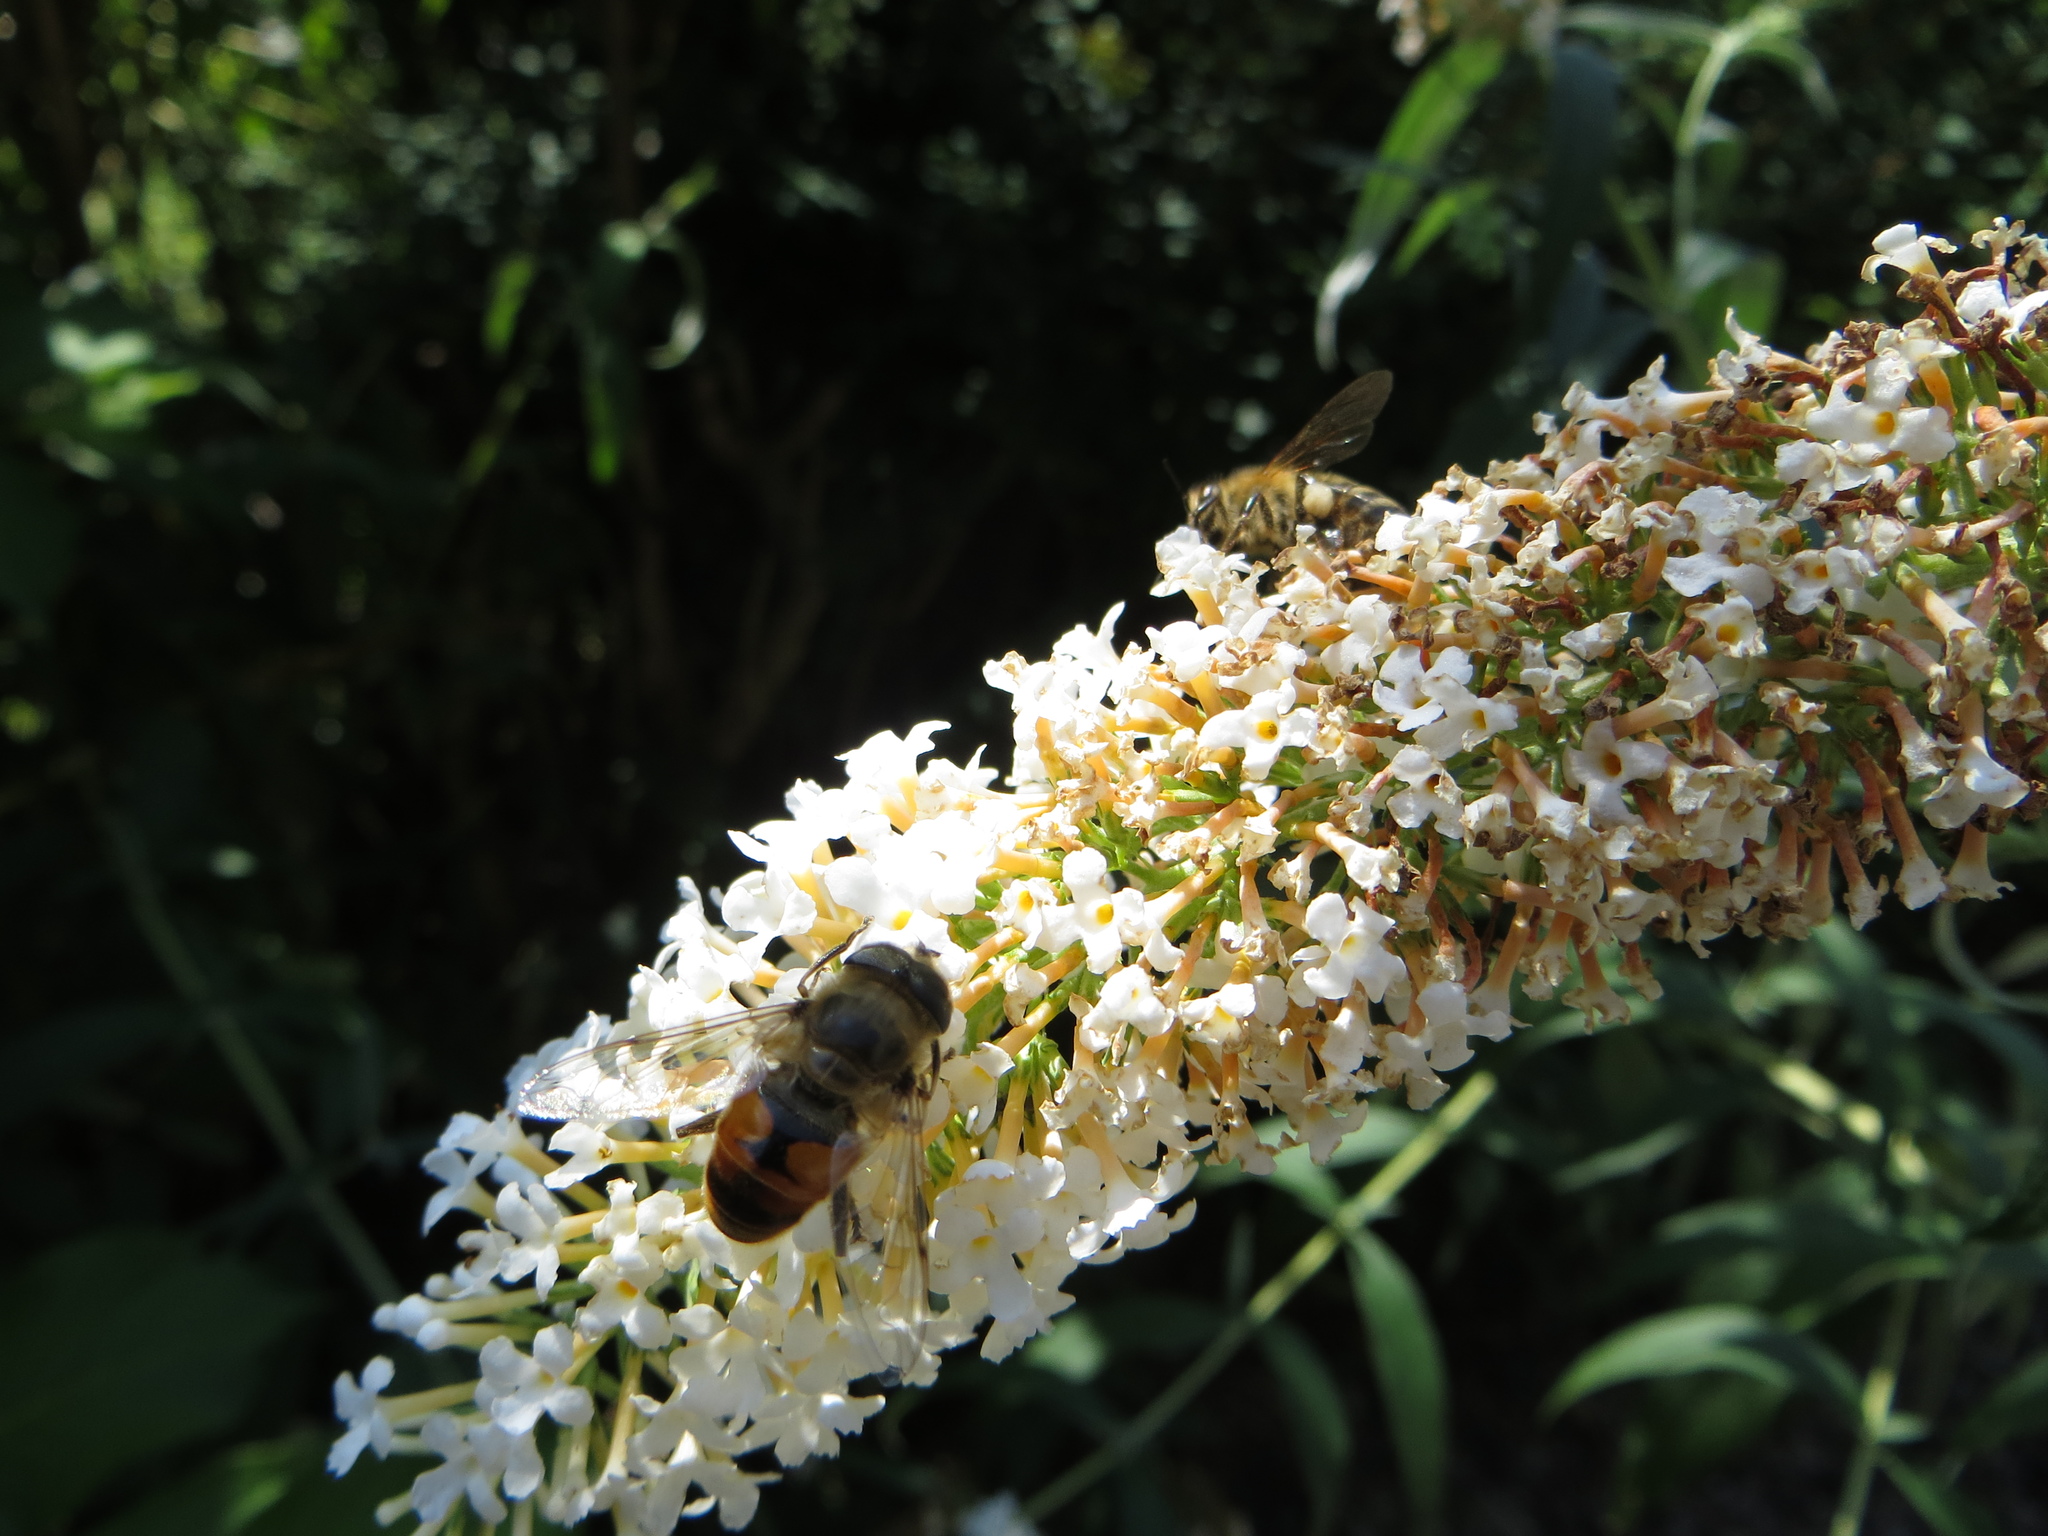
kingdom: Animalia
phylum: Arthropoda
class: Insecta
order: Diptera
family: Syrphidae
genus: Eristalis
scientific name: Eristalis tenax
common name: Drone fly
